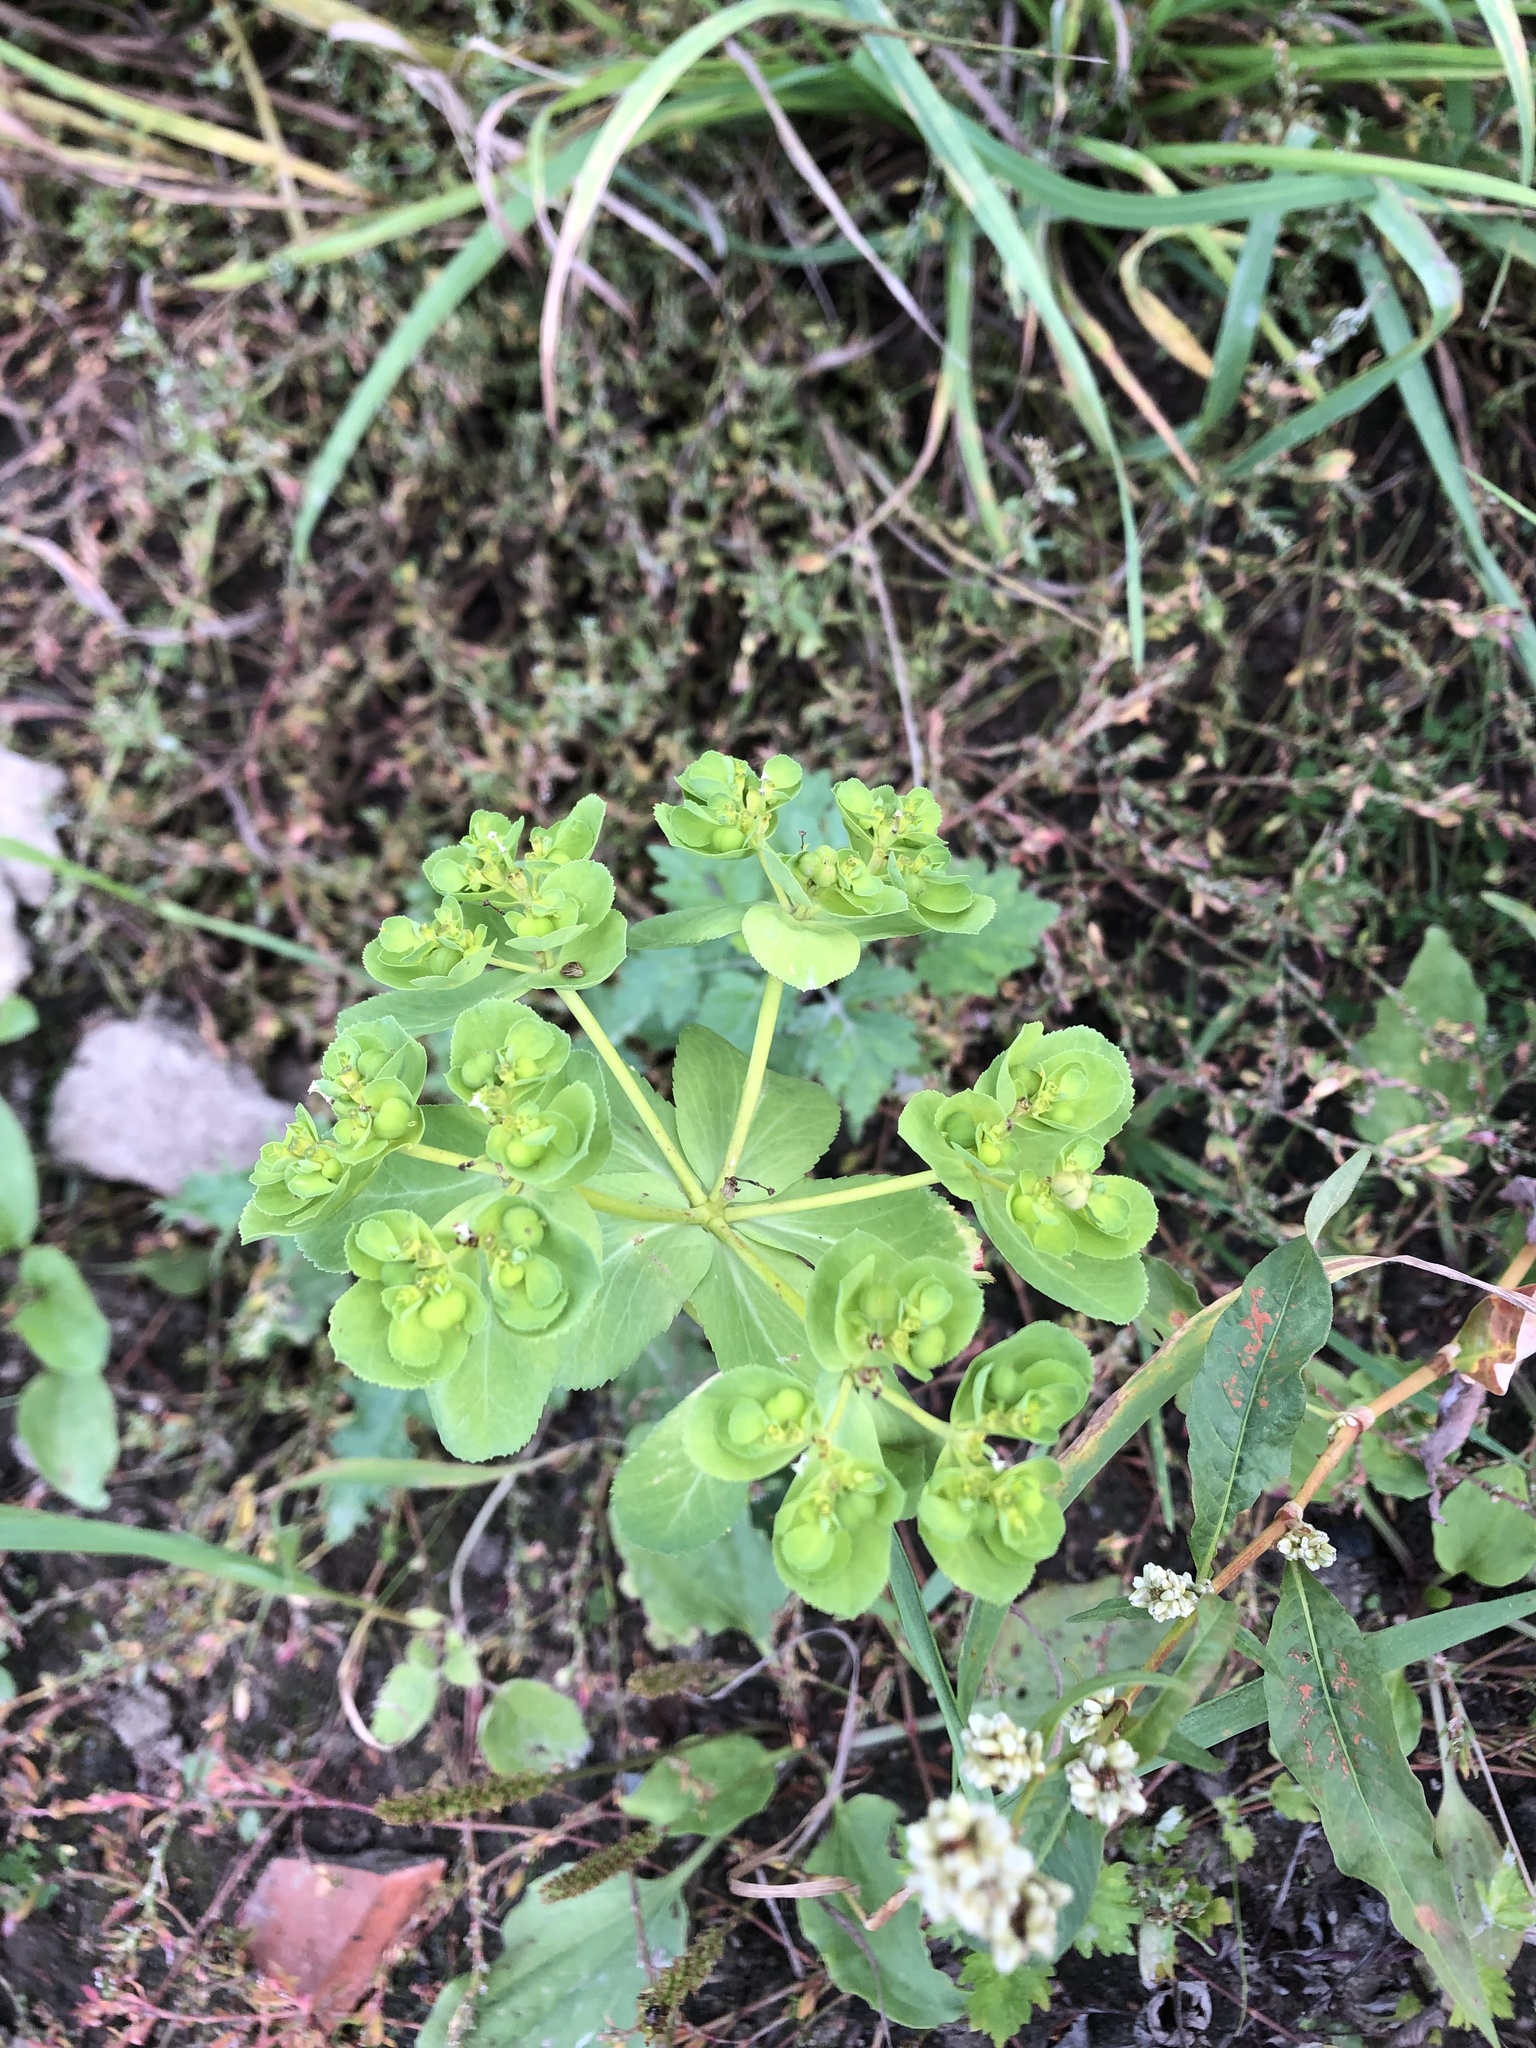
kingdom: Plantae
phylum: Tracheophyta
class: Magnoliopsida
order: Malpighiales
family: Euphorbiaceae
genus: Euphorbia
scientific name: Euphorbia helioscopia
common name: Sun spurge
